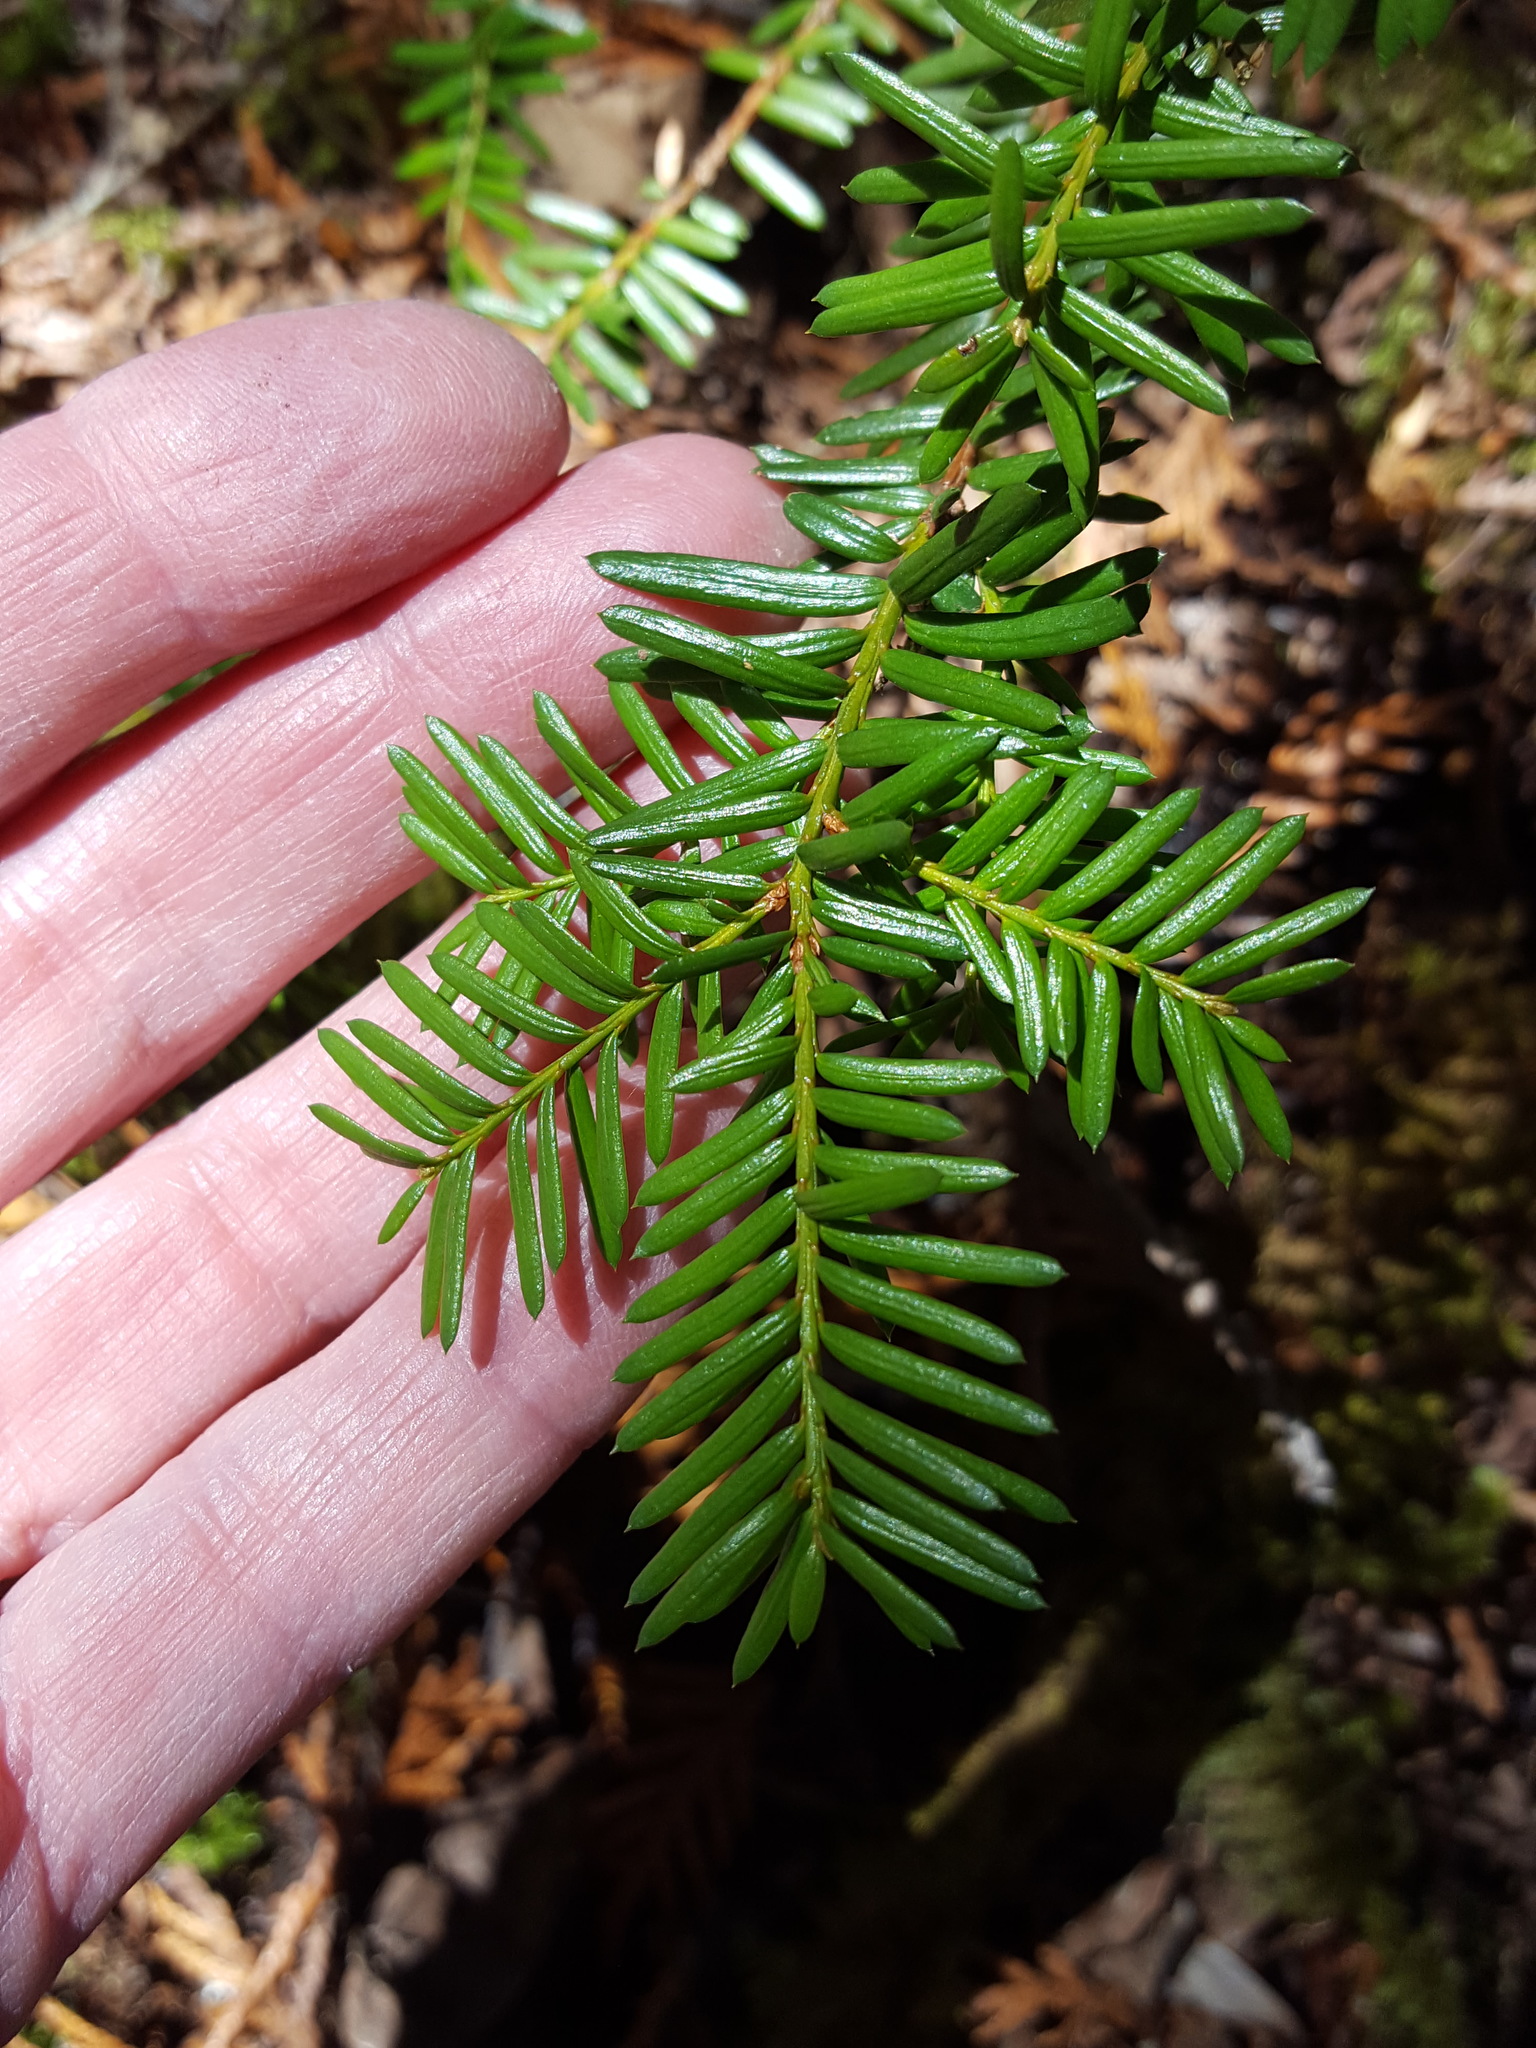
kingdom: Plantae
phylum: Tracheophyta
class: Pinopsida
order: Pinales
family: Taxaceae
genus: Taxus
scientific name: Taxus canadensis
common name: American yew
